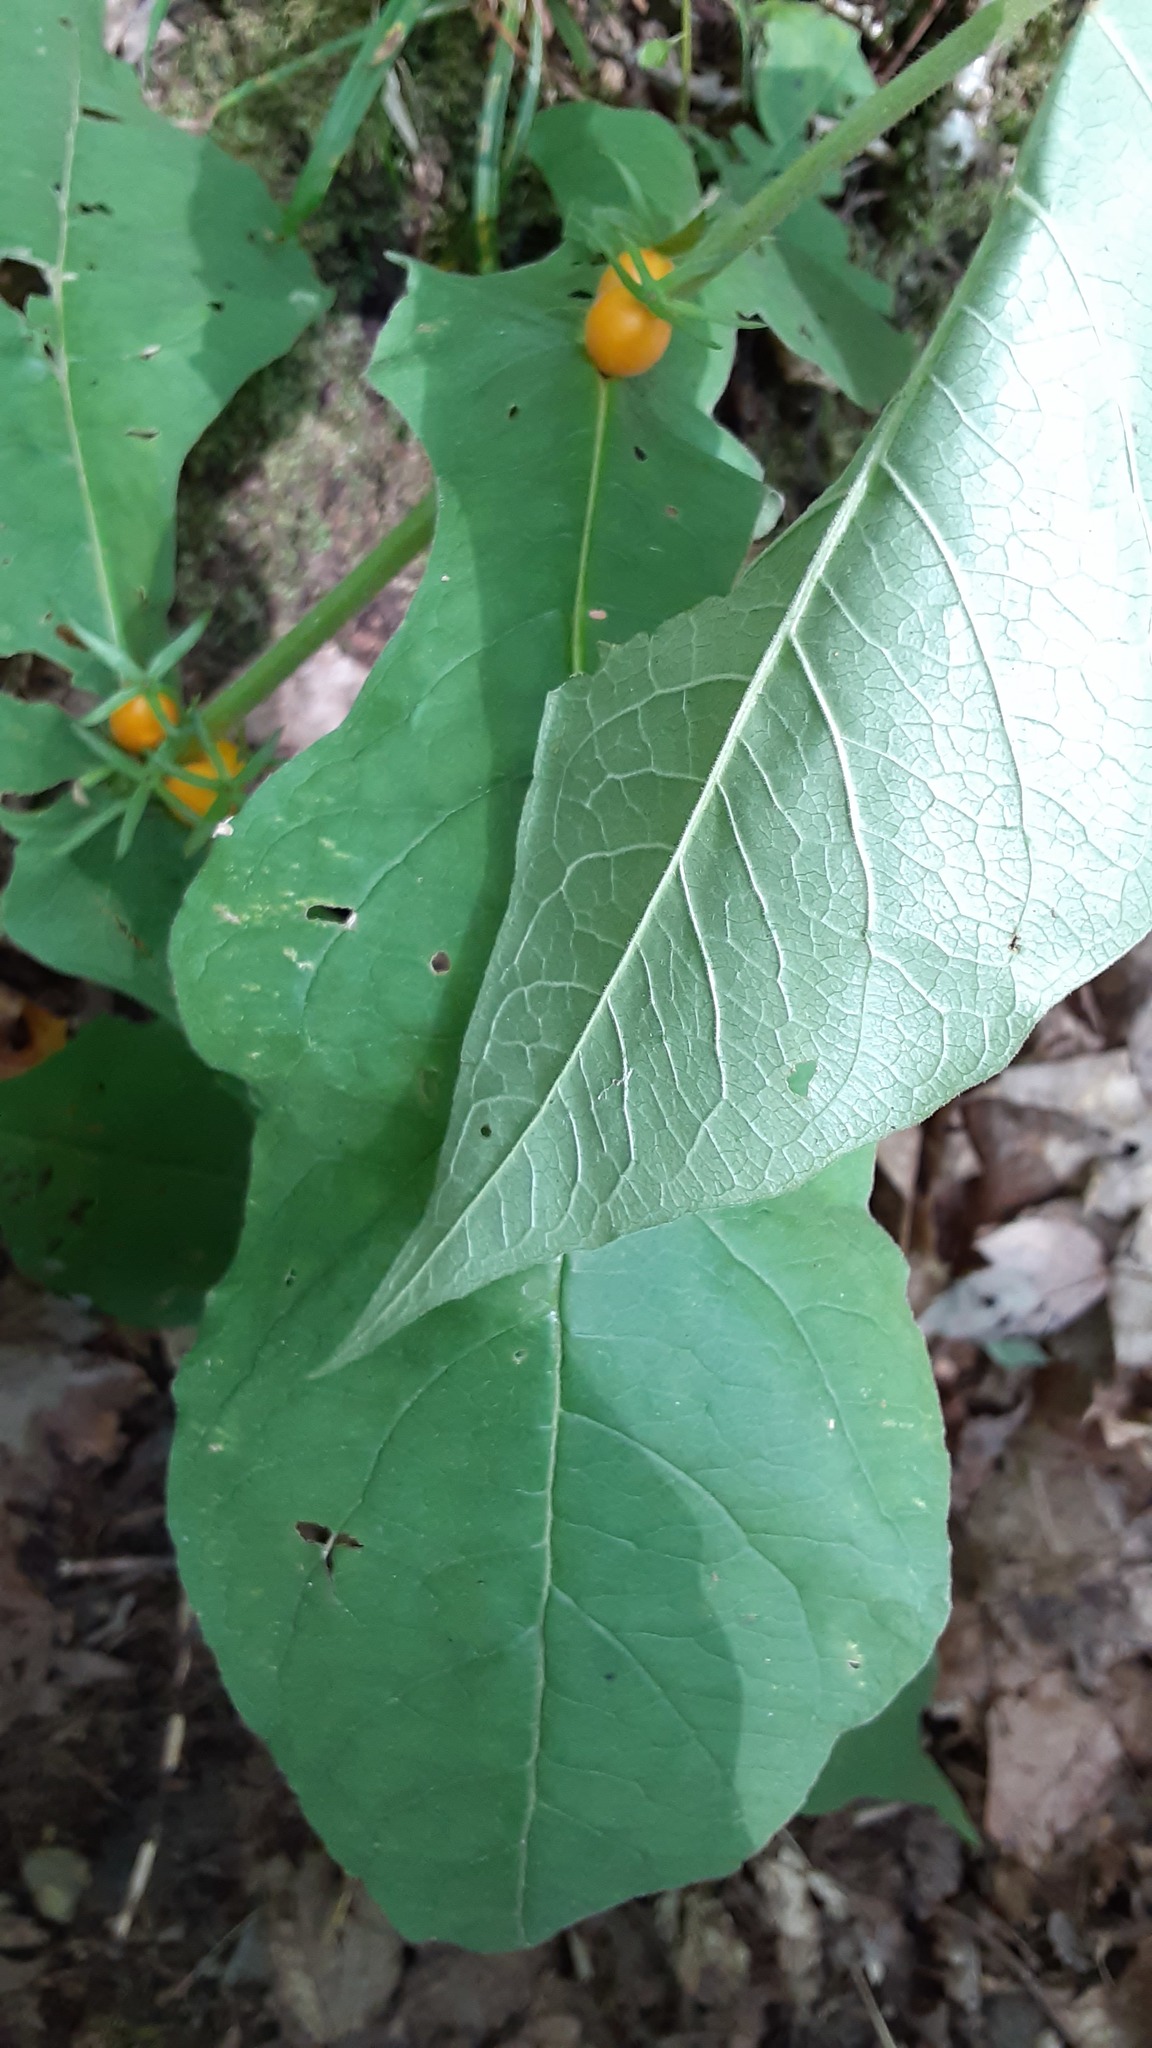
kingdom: Plantae
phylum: Tracheophyta
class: Magnoliopsida
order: Dipsacales
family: Caprifoliaceae
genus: Triosteum
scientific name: Triosteum aurantiacum
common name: Coffee tinker's-weed
